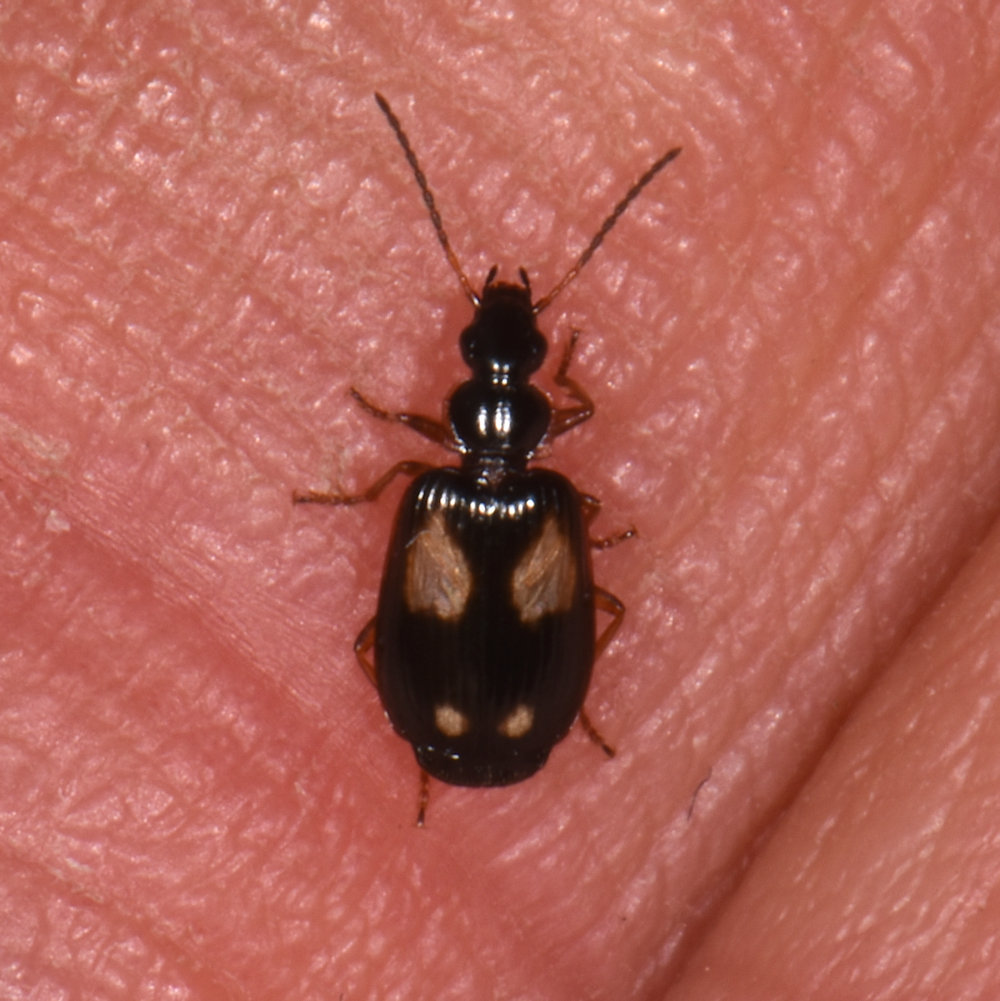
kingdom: Animalia
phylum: Arthropoda
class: Insecta
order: Coleoptera
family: Carabidae
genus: Lebia
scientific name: Lebia ornata
